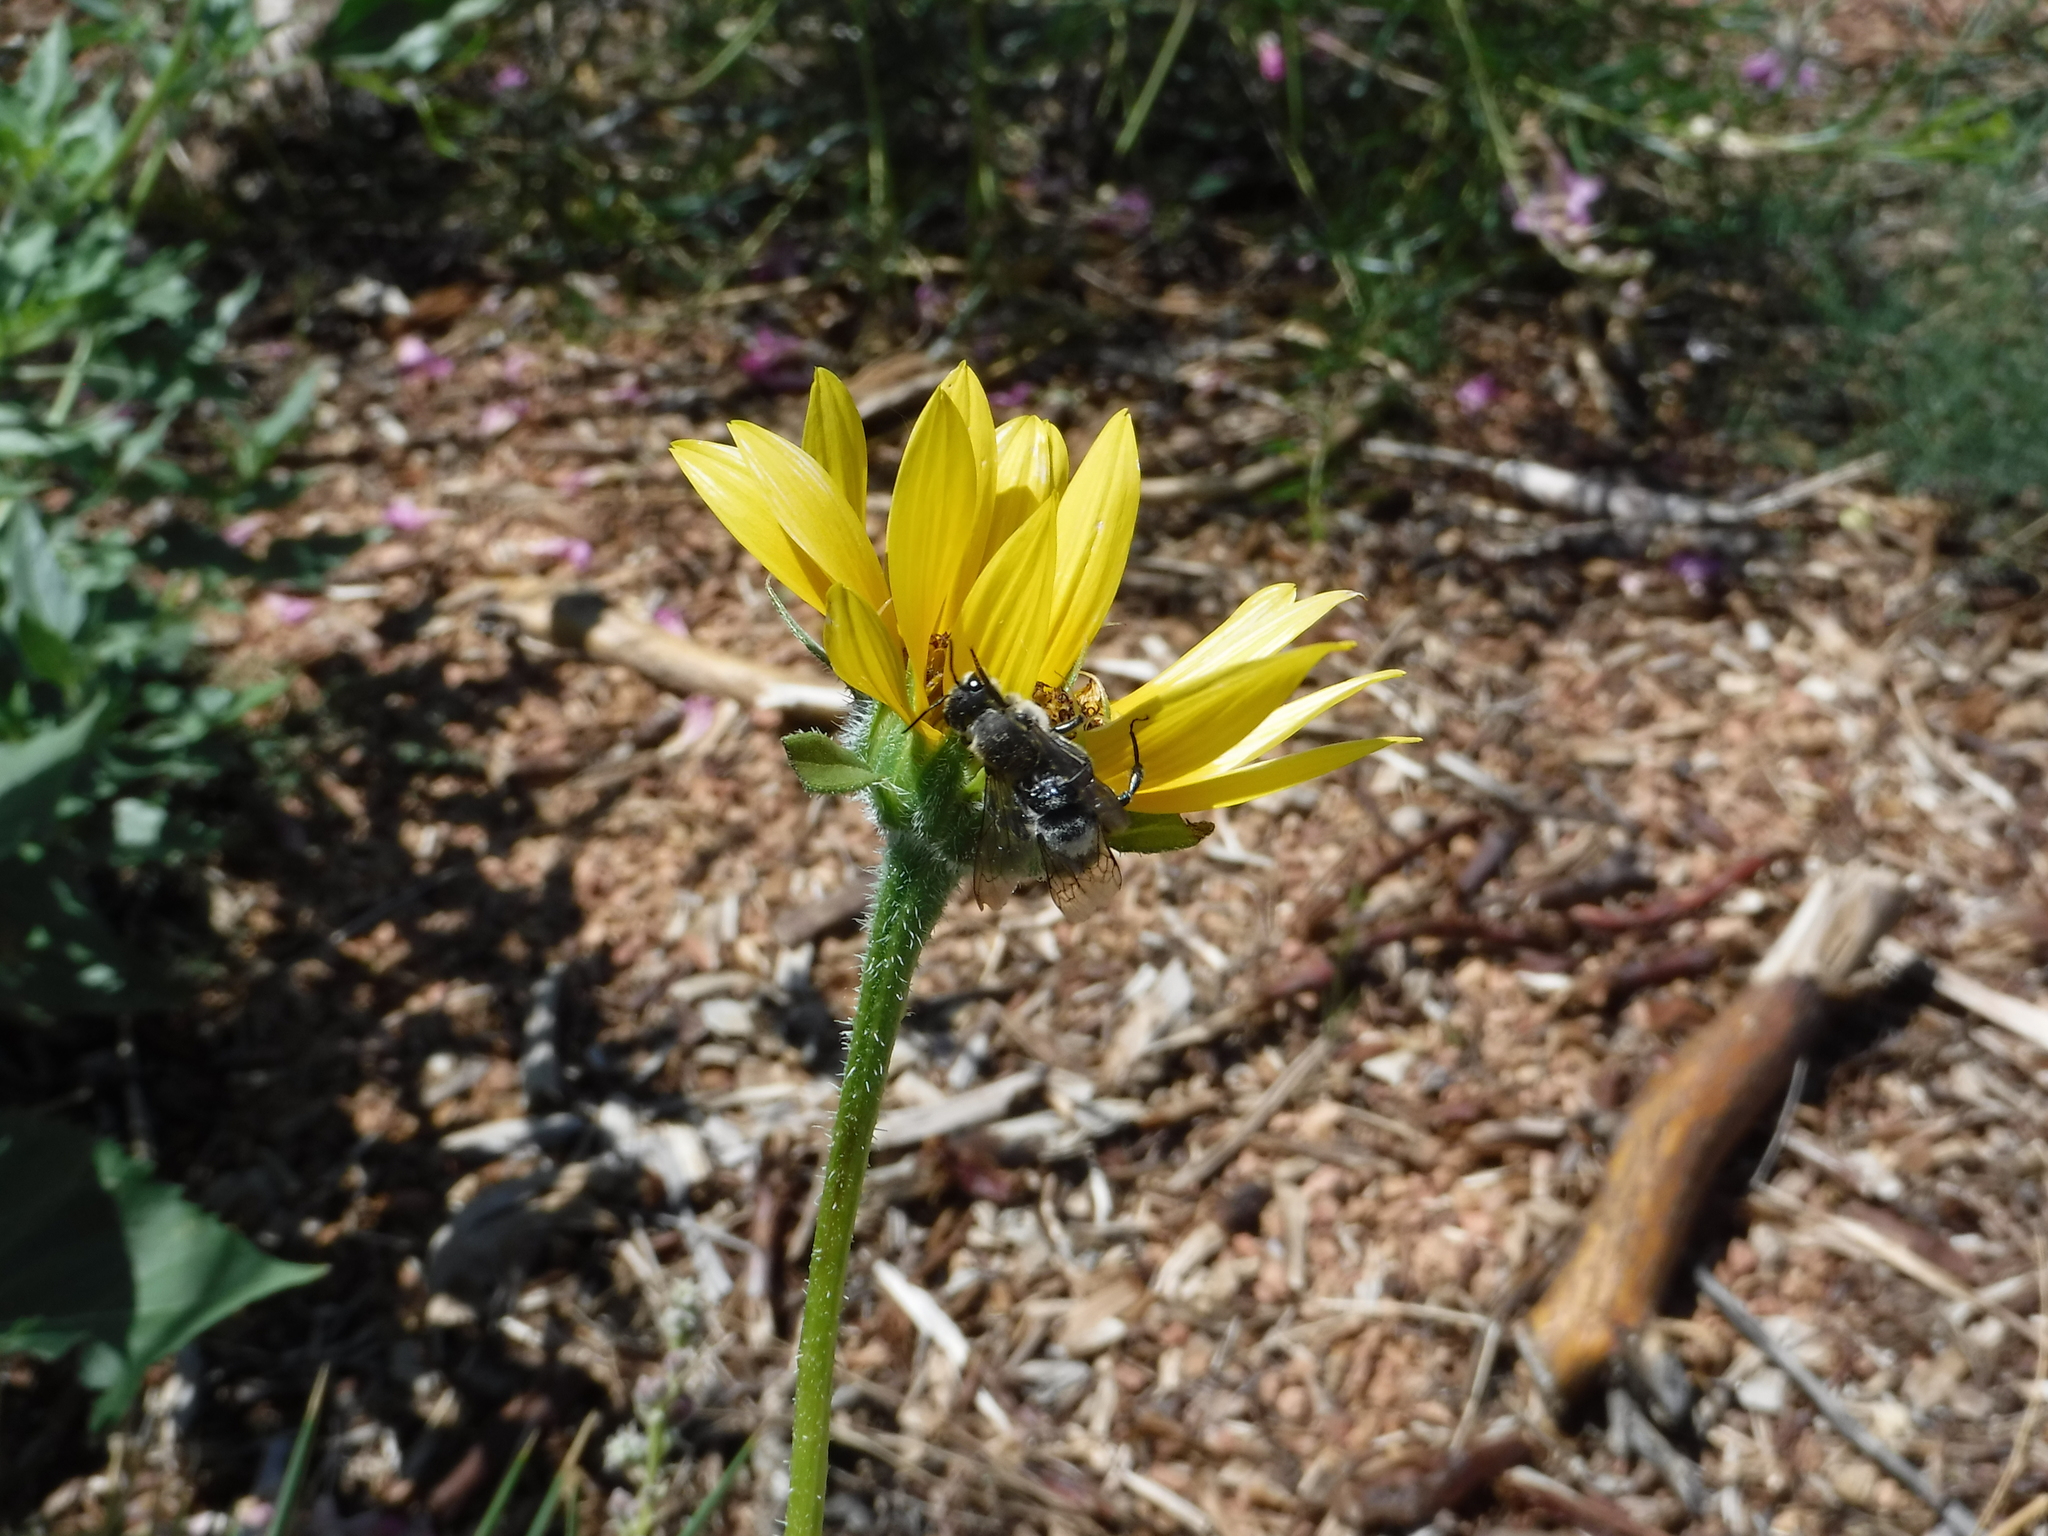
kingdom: Animalia
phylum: Arthropoda
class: Insecta
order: Hymenoptera
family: Megachilidae
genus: Lithurgopsis
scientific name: Lithurgopsis apicalis
